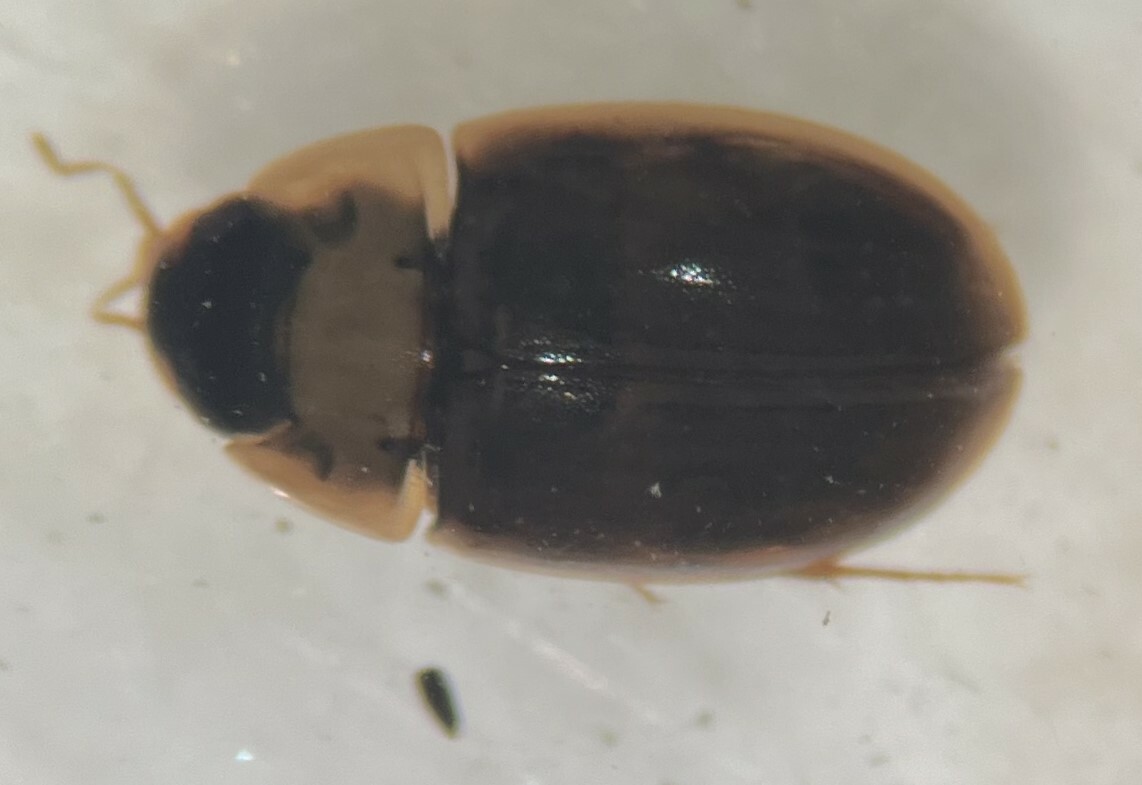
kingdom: Animalia
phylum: Arthropoda
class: Insecta
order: Coleoptera
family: Hydrophilidae
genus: Enochrus
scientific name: Enochrus pygmaeus
